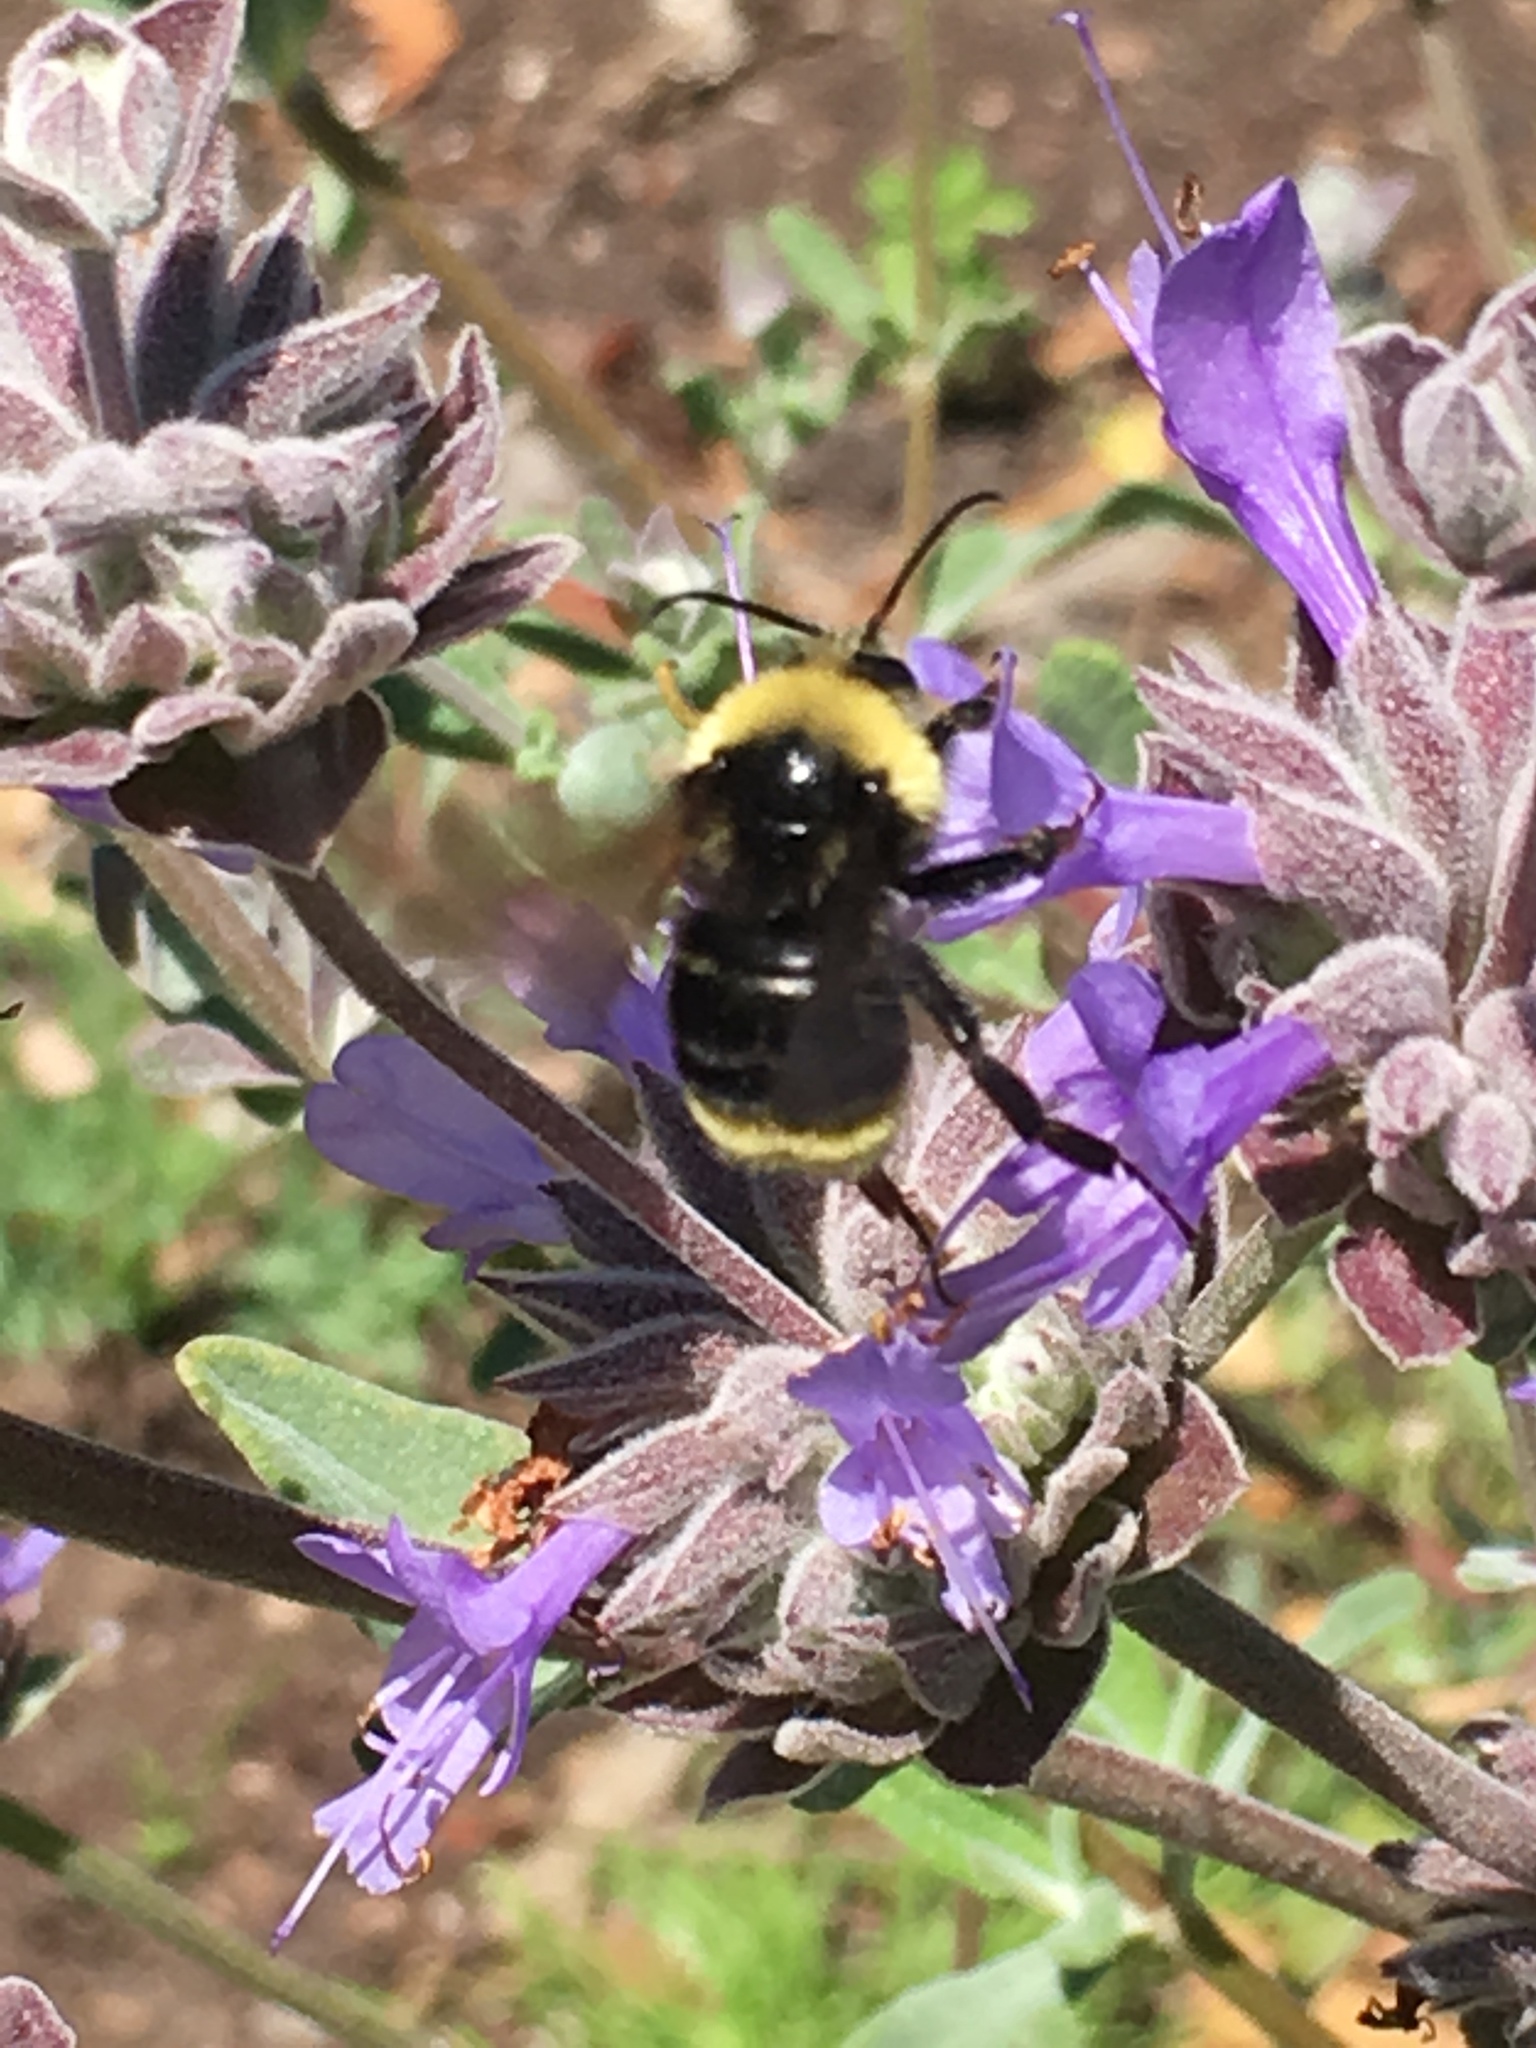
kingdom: Animalia
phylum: Arthropoda
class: Insecta
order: Hymenoptera
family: Apidae
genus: Bombus
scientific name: Bombus
